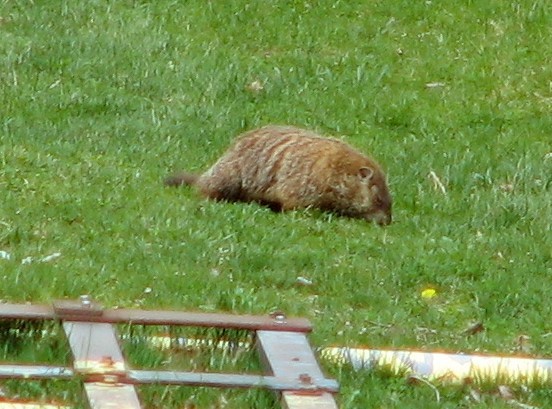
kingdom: Animalia
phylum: Chordata
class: Mammalia
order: Rodentia
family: Sciuridae
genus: Marmota
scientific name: Marmota monax
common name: Groundhog
